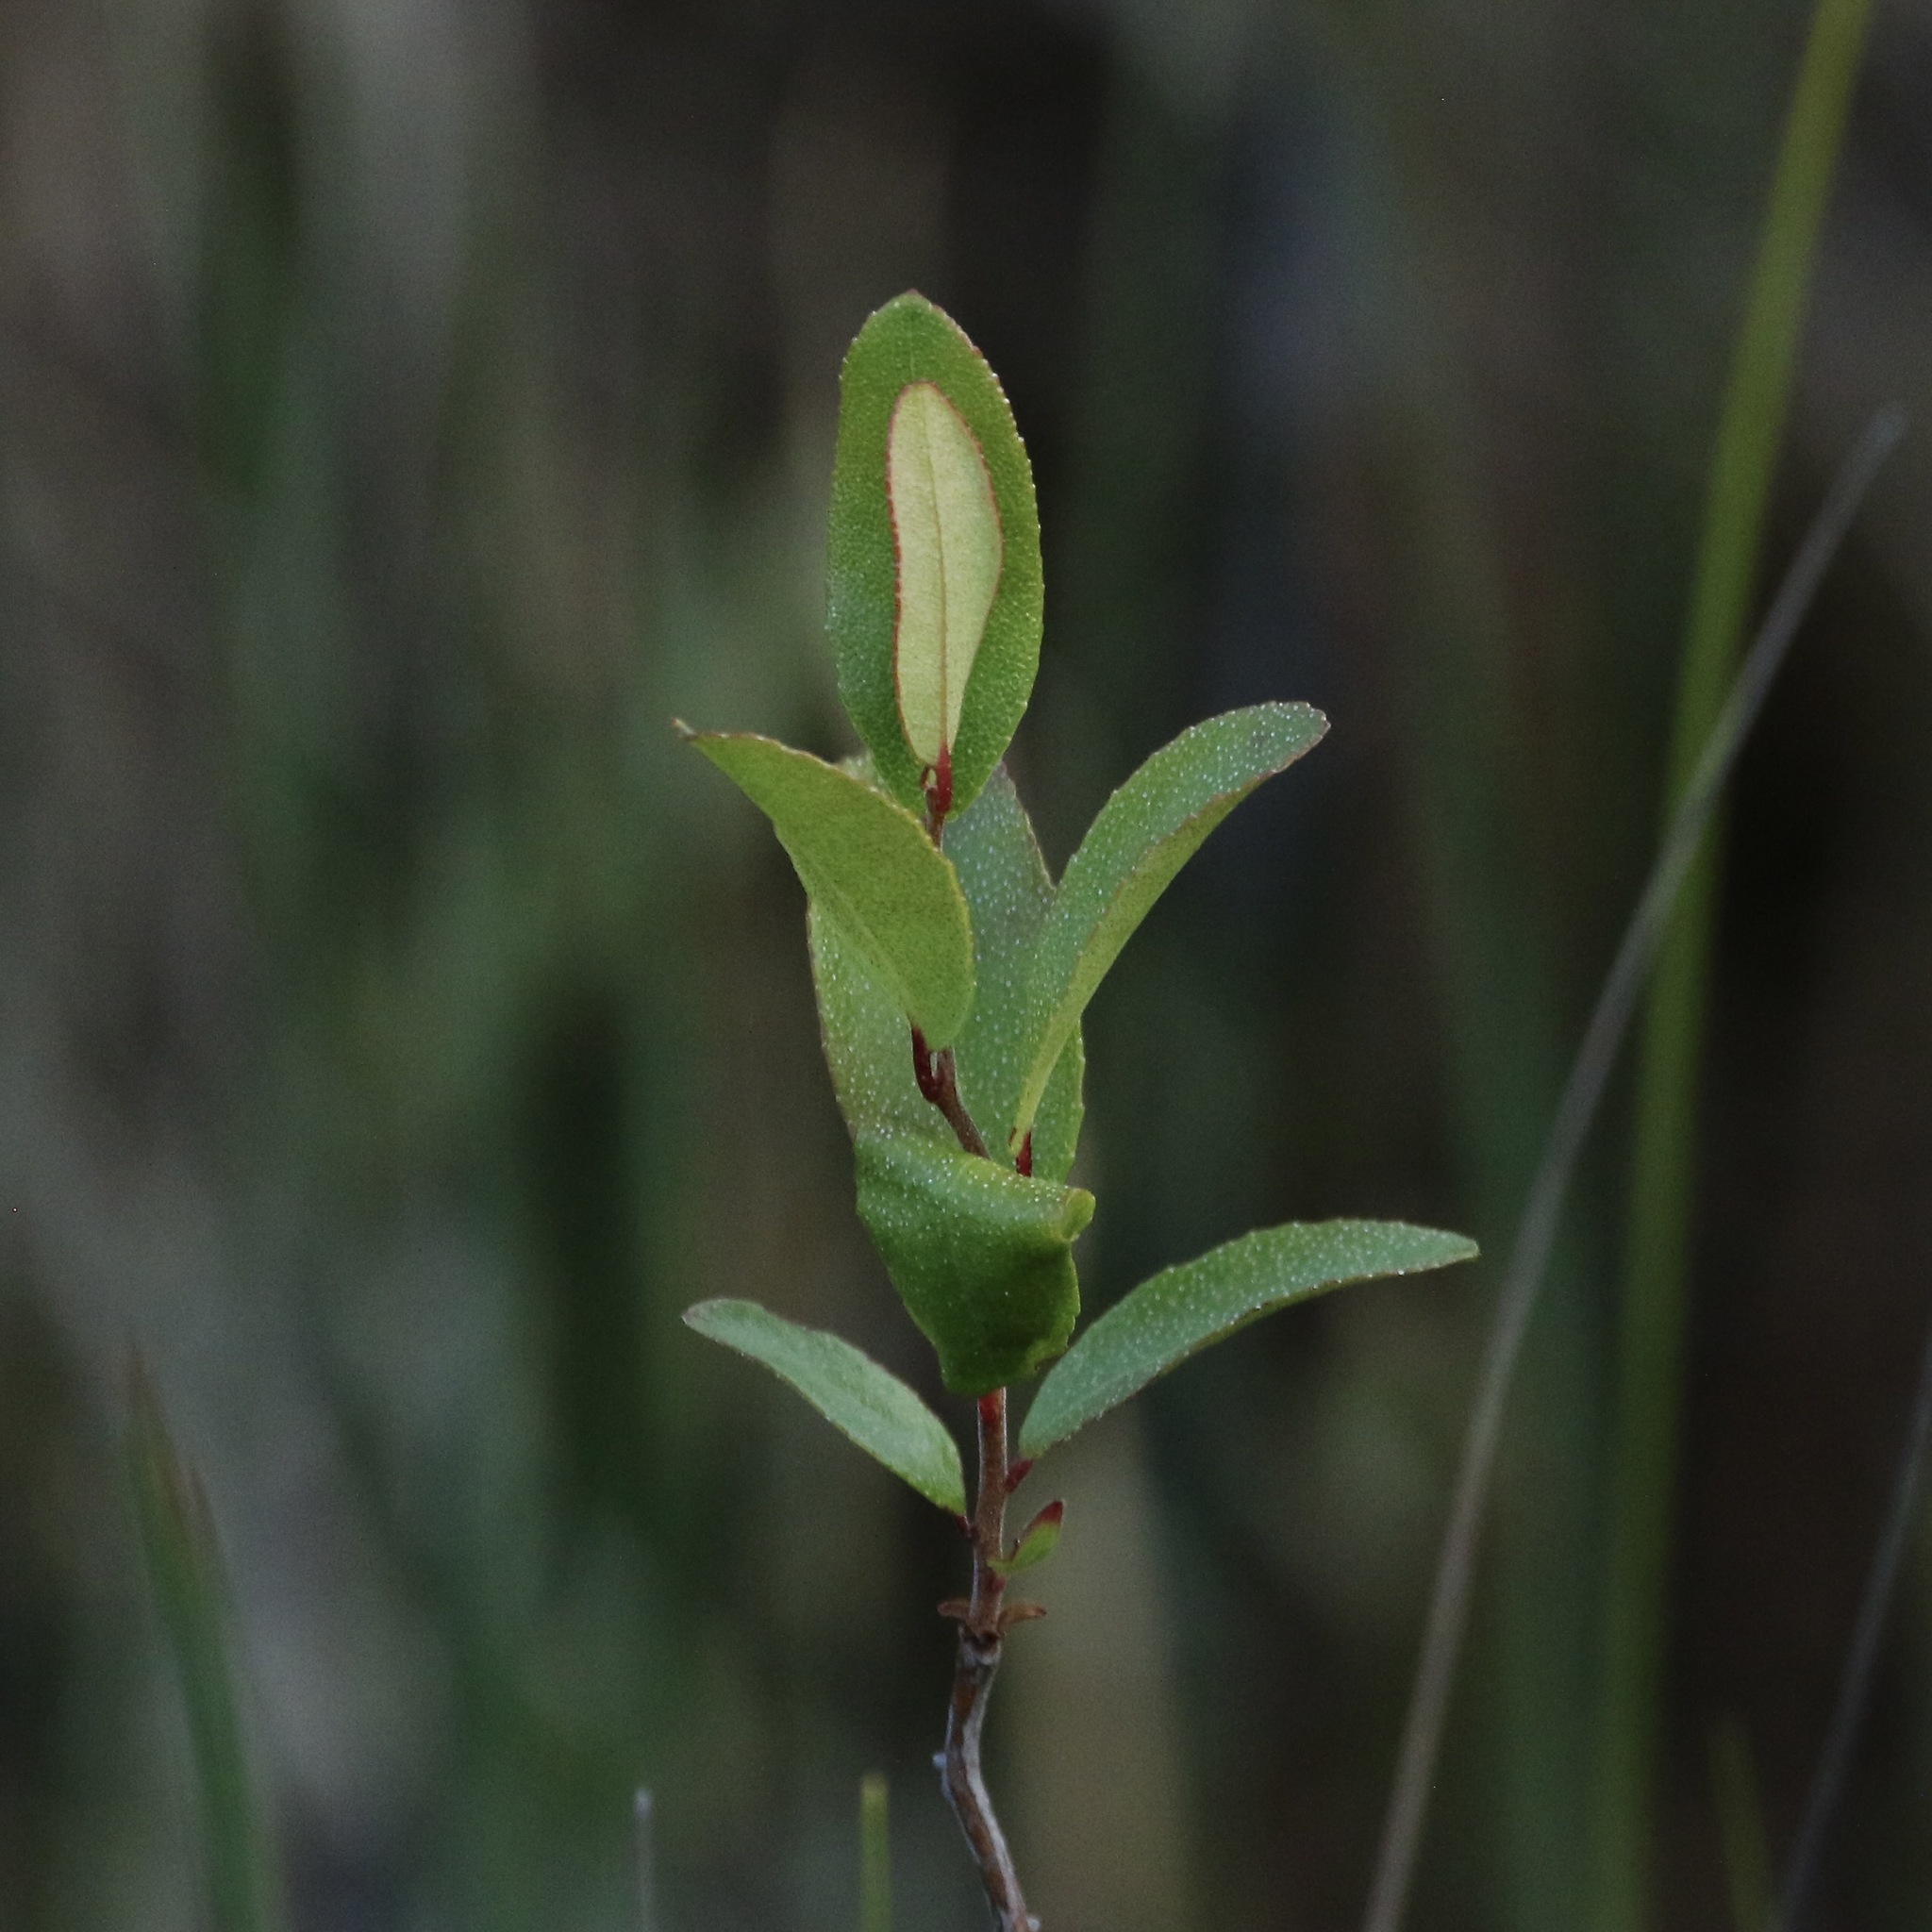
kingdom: Plantae
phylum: Tracheophyta
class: Magnoliopsida
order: Ericales
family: Ericaceae
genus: Chamaedaphne
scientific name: Chamaedaphne calyculata
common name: Leatherleaf
